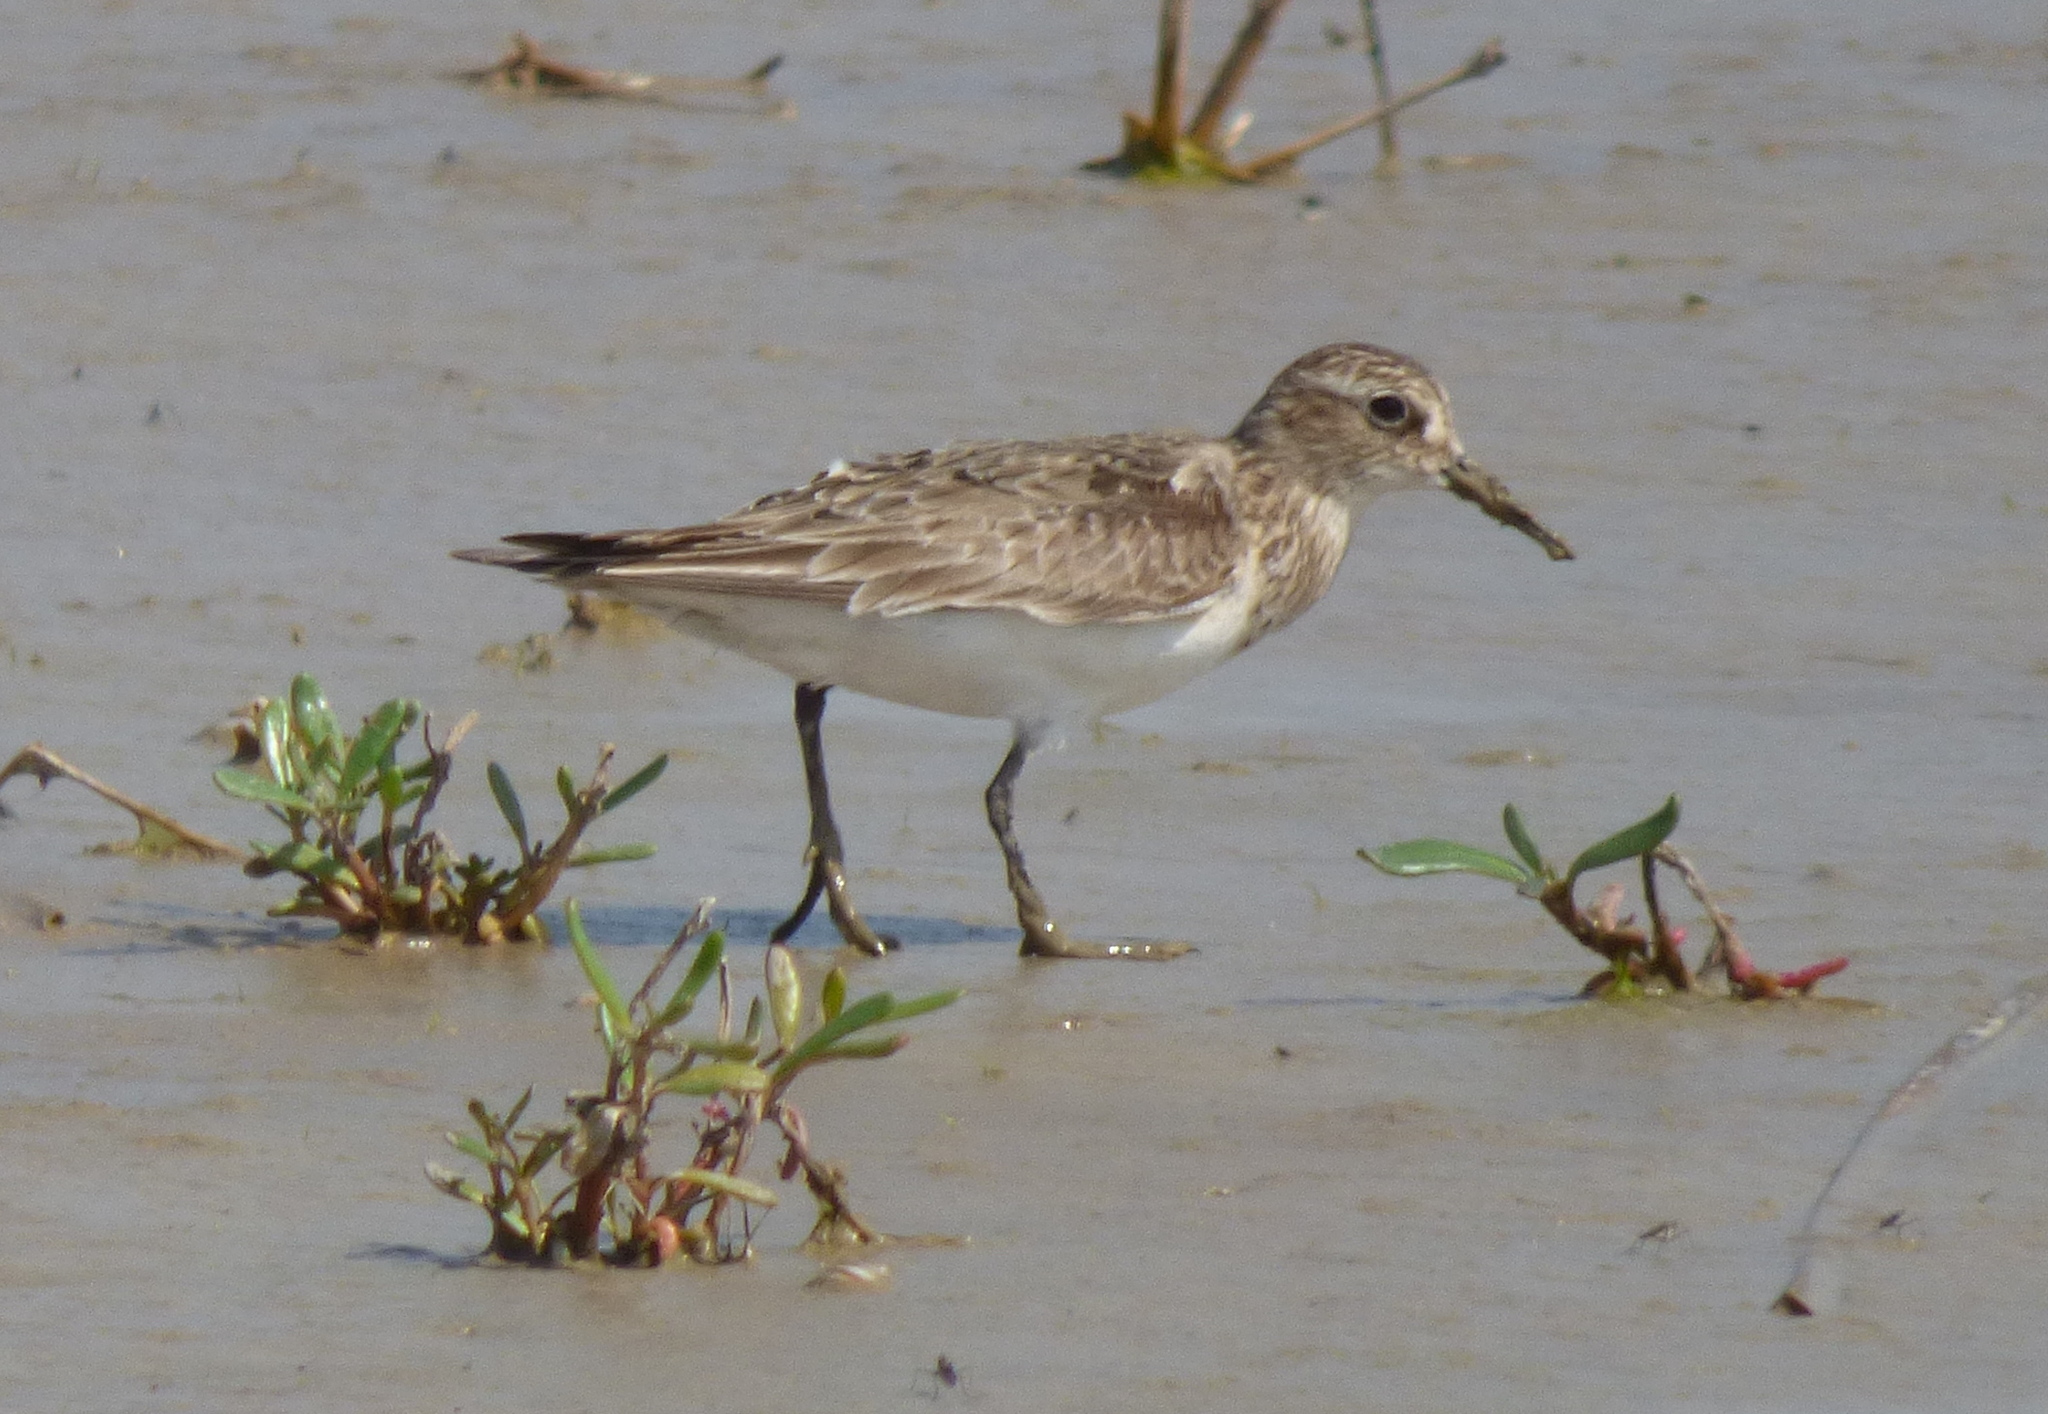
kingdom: Animalia
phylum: Chordata
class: Aves
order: Charadriiformes
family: Scolopacidae
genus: Calidris
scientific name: Calidris bairdii
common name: Baird's sandpiper
